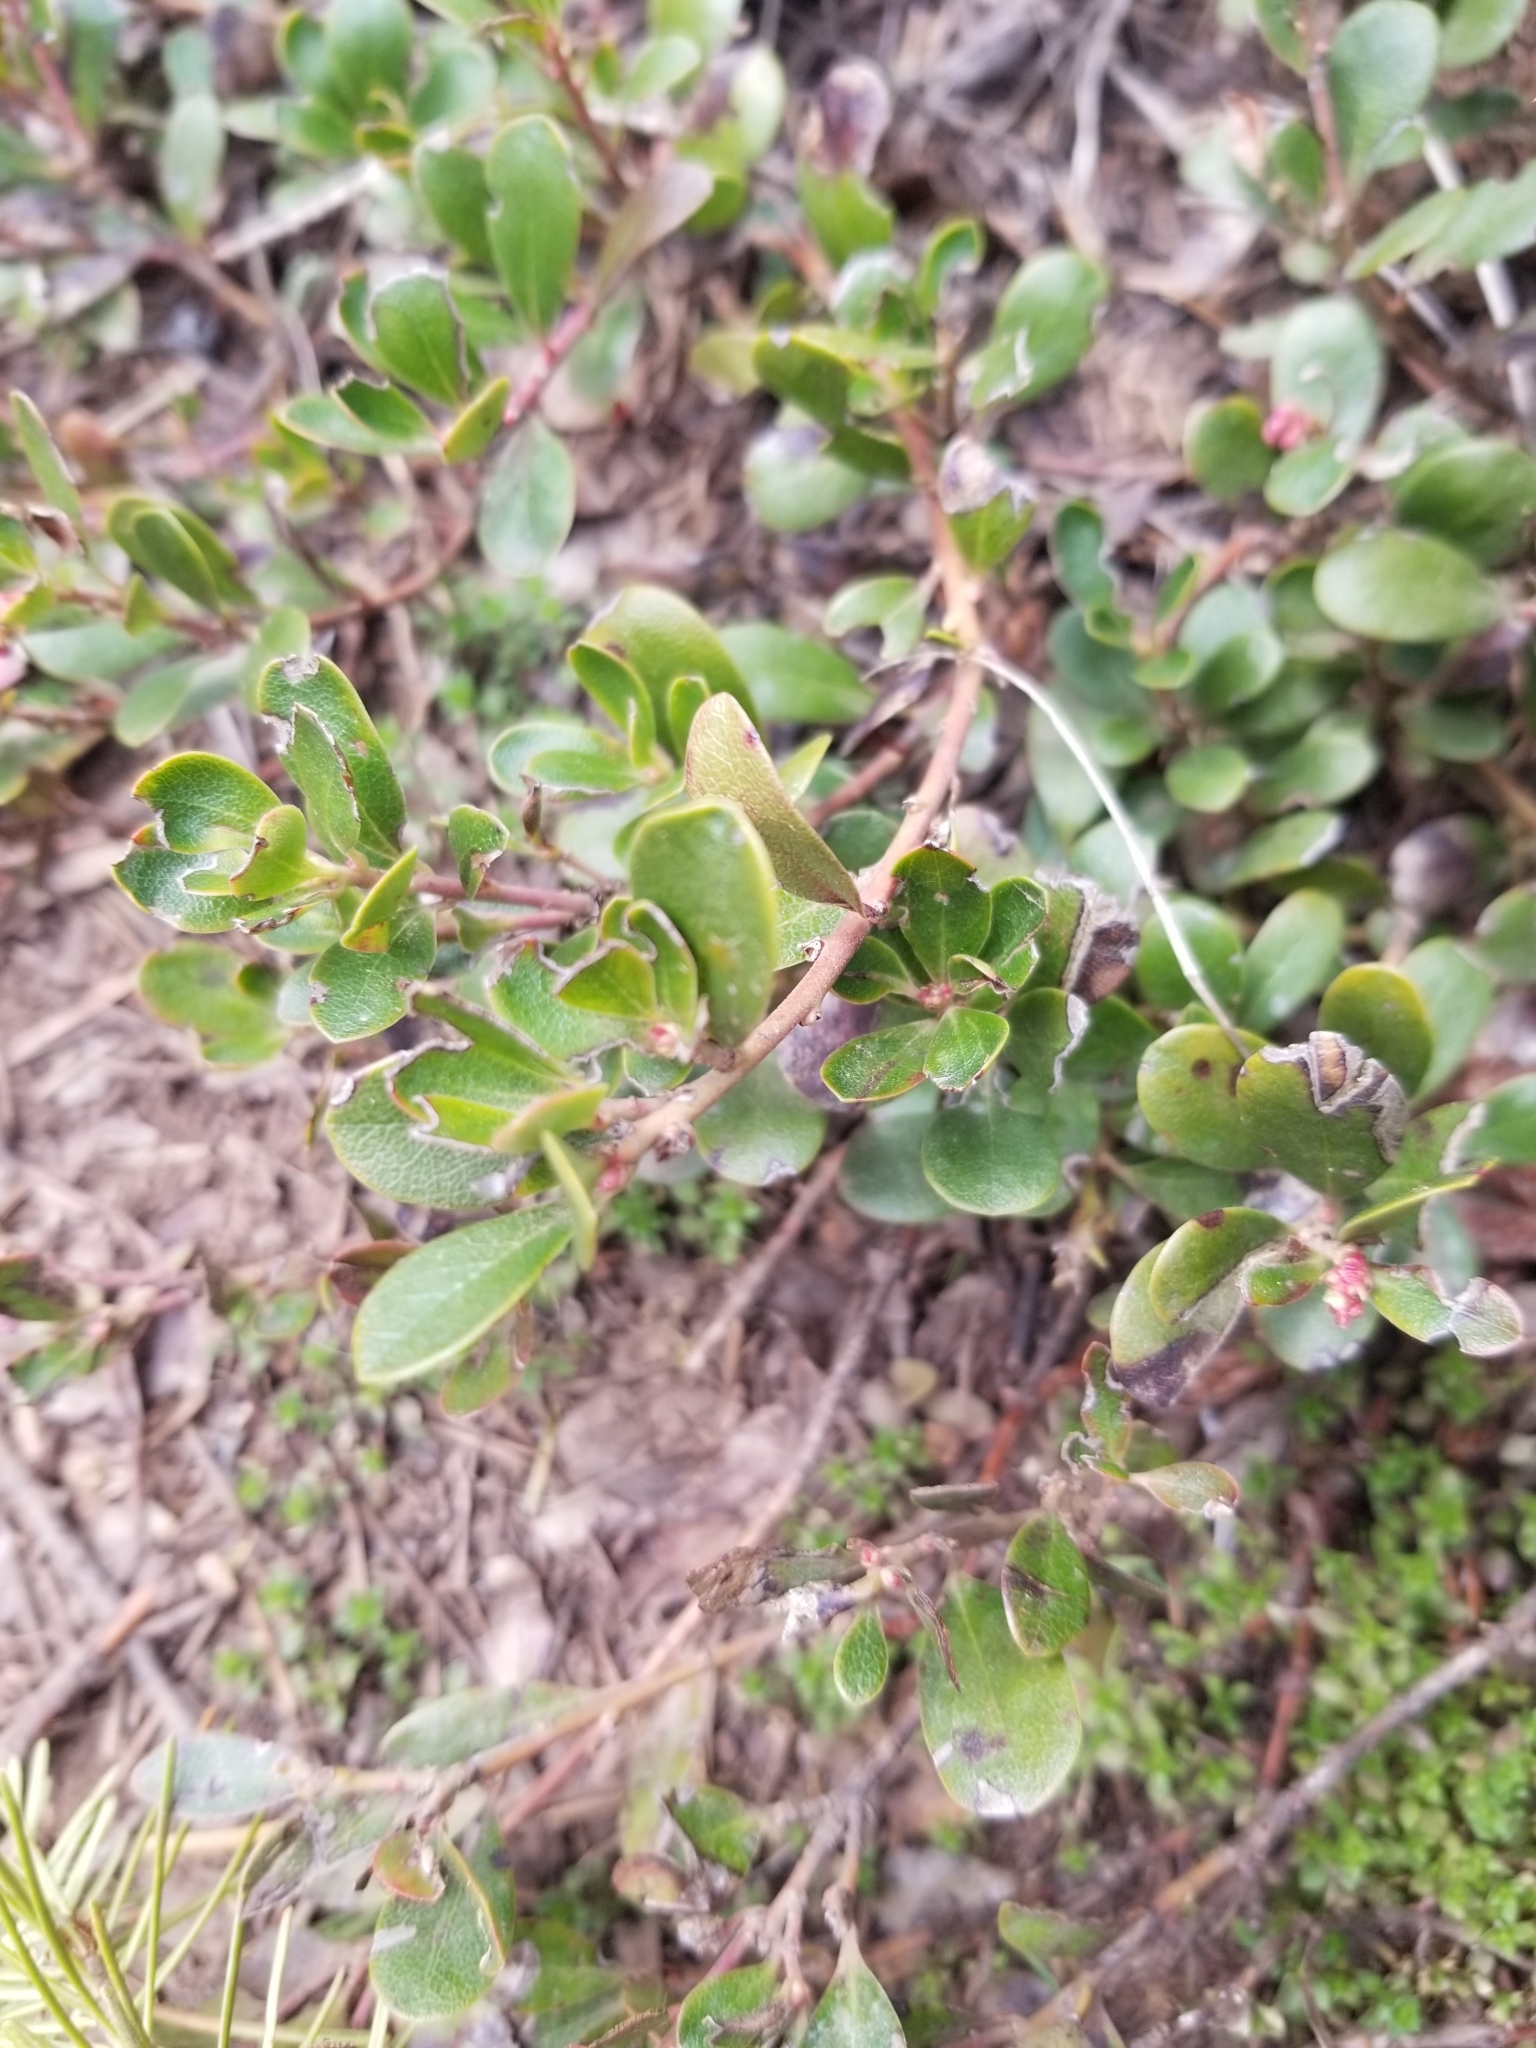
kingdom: Plantae
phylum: Tracheophyta
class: Magnoliopsida
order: Ericales
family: Ericaceae
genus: Arctostaphylos
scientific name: Arctostaphylos uva-ursi
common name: Bearberry
